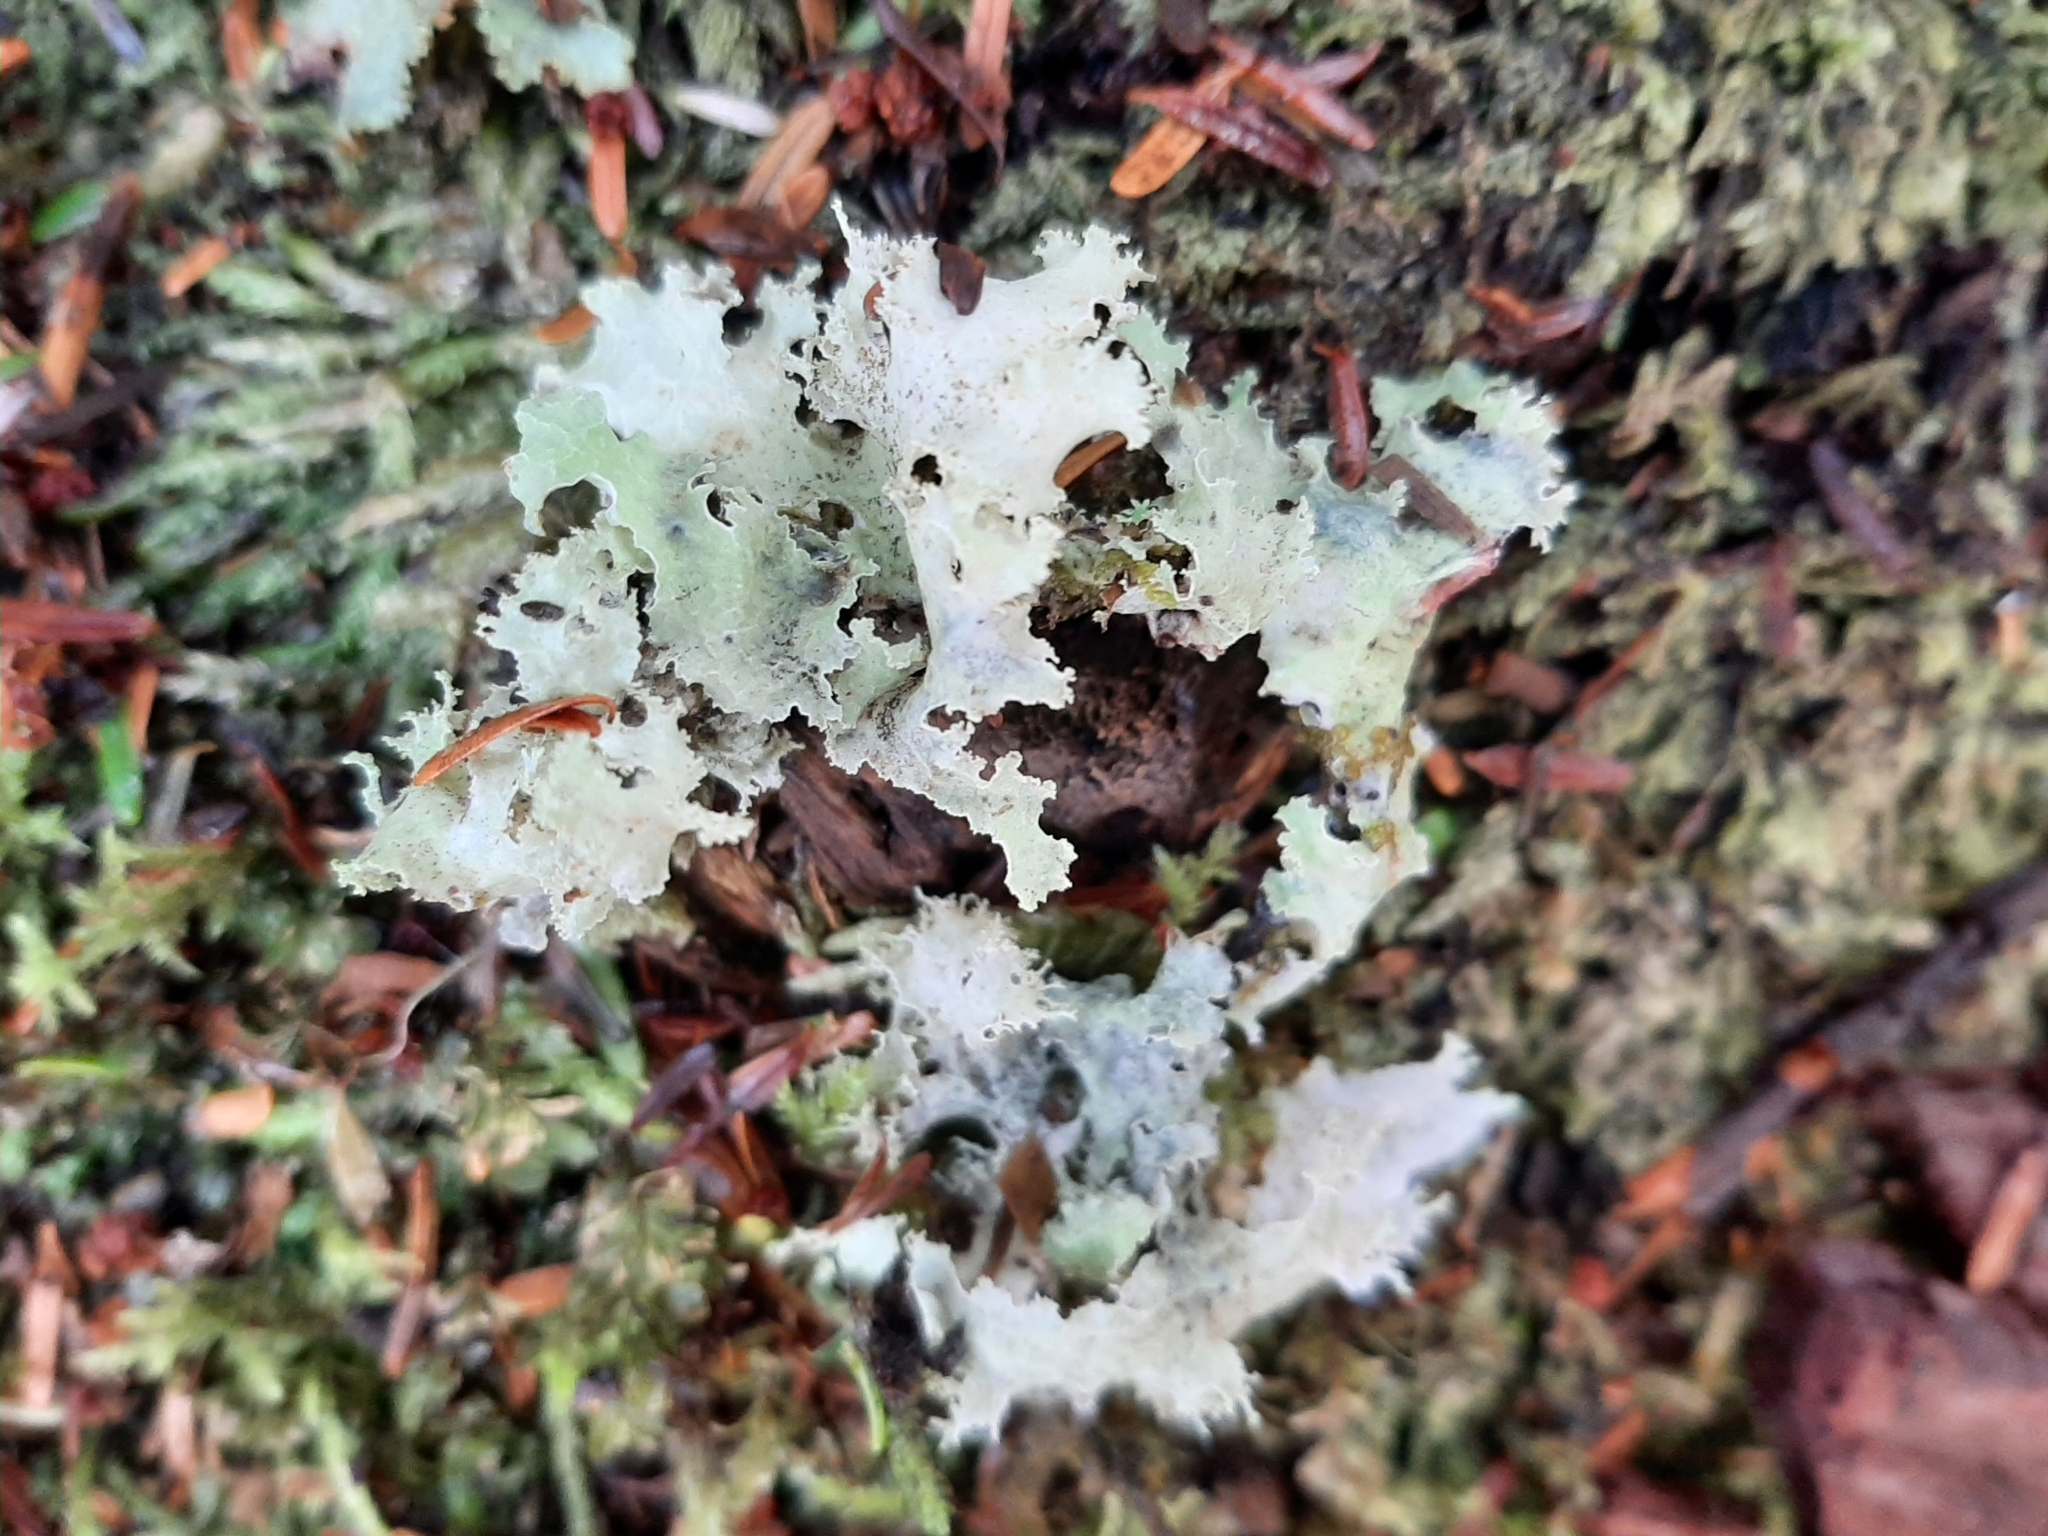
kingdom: Fungi
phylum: Ascomycota
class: Lecanoromycetes
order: Lecanorales
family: Parmeliaceae
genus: Platismatia
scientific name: Platismatia glauca
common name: Varied rag lichen
